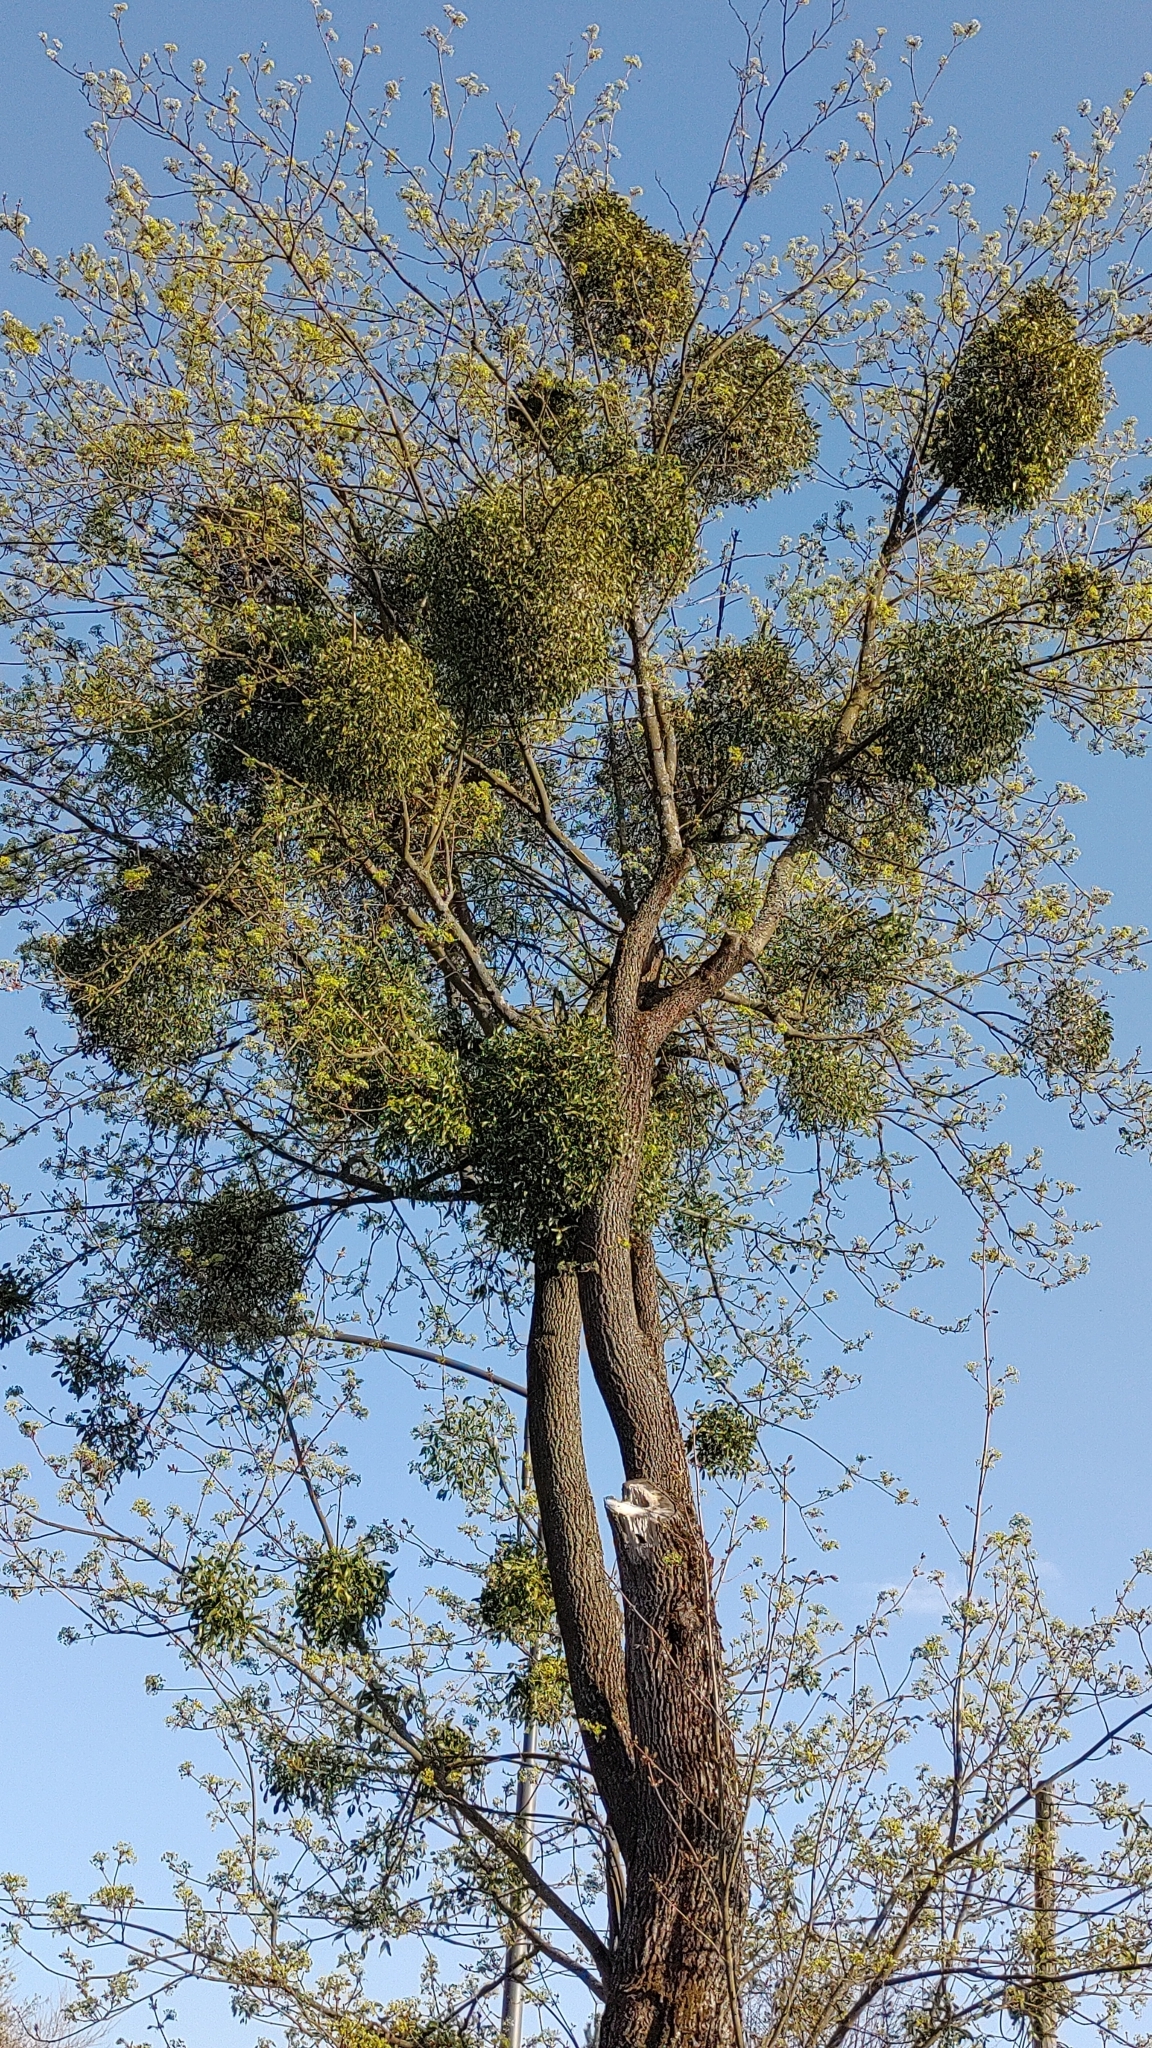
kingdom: Plantae
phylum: Tracheophyta
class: Magnoliopsida
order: Santalales
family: Viscaceae
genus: Viscum
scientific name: Viscum album
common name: Mistletoe
